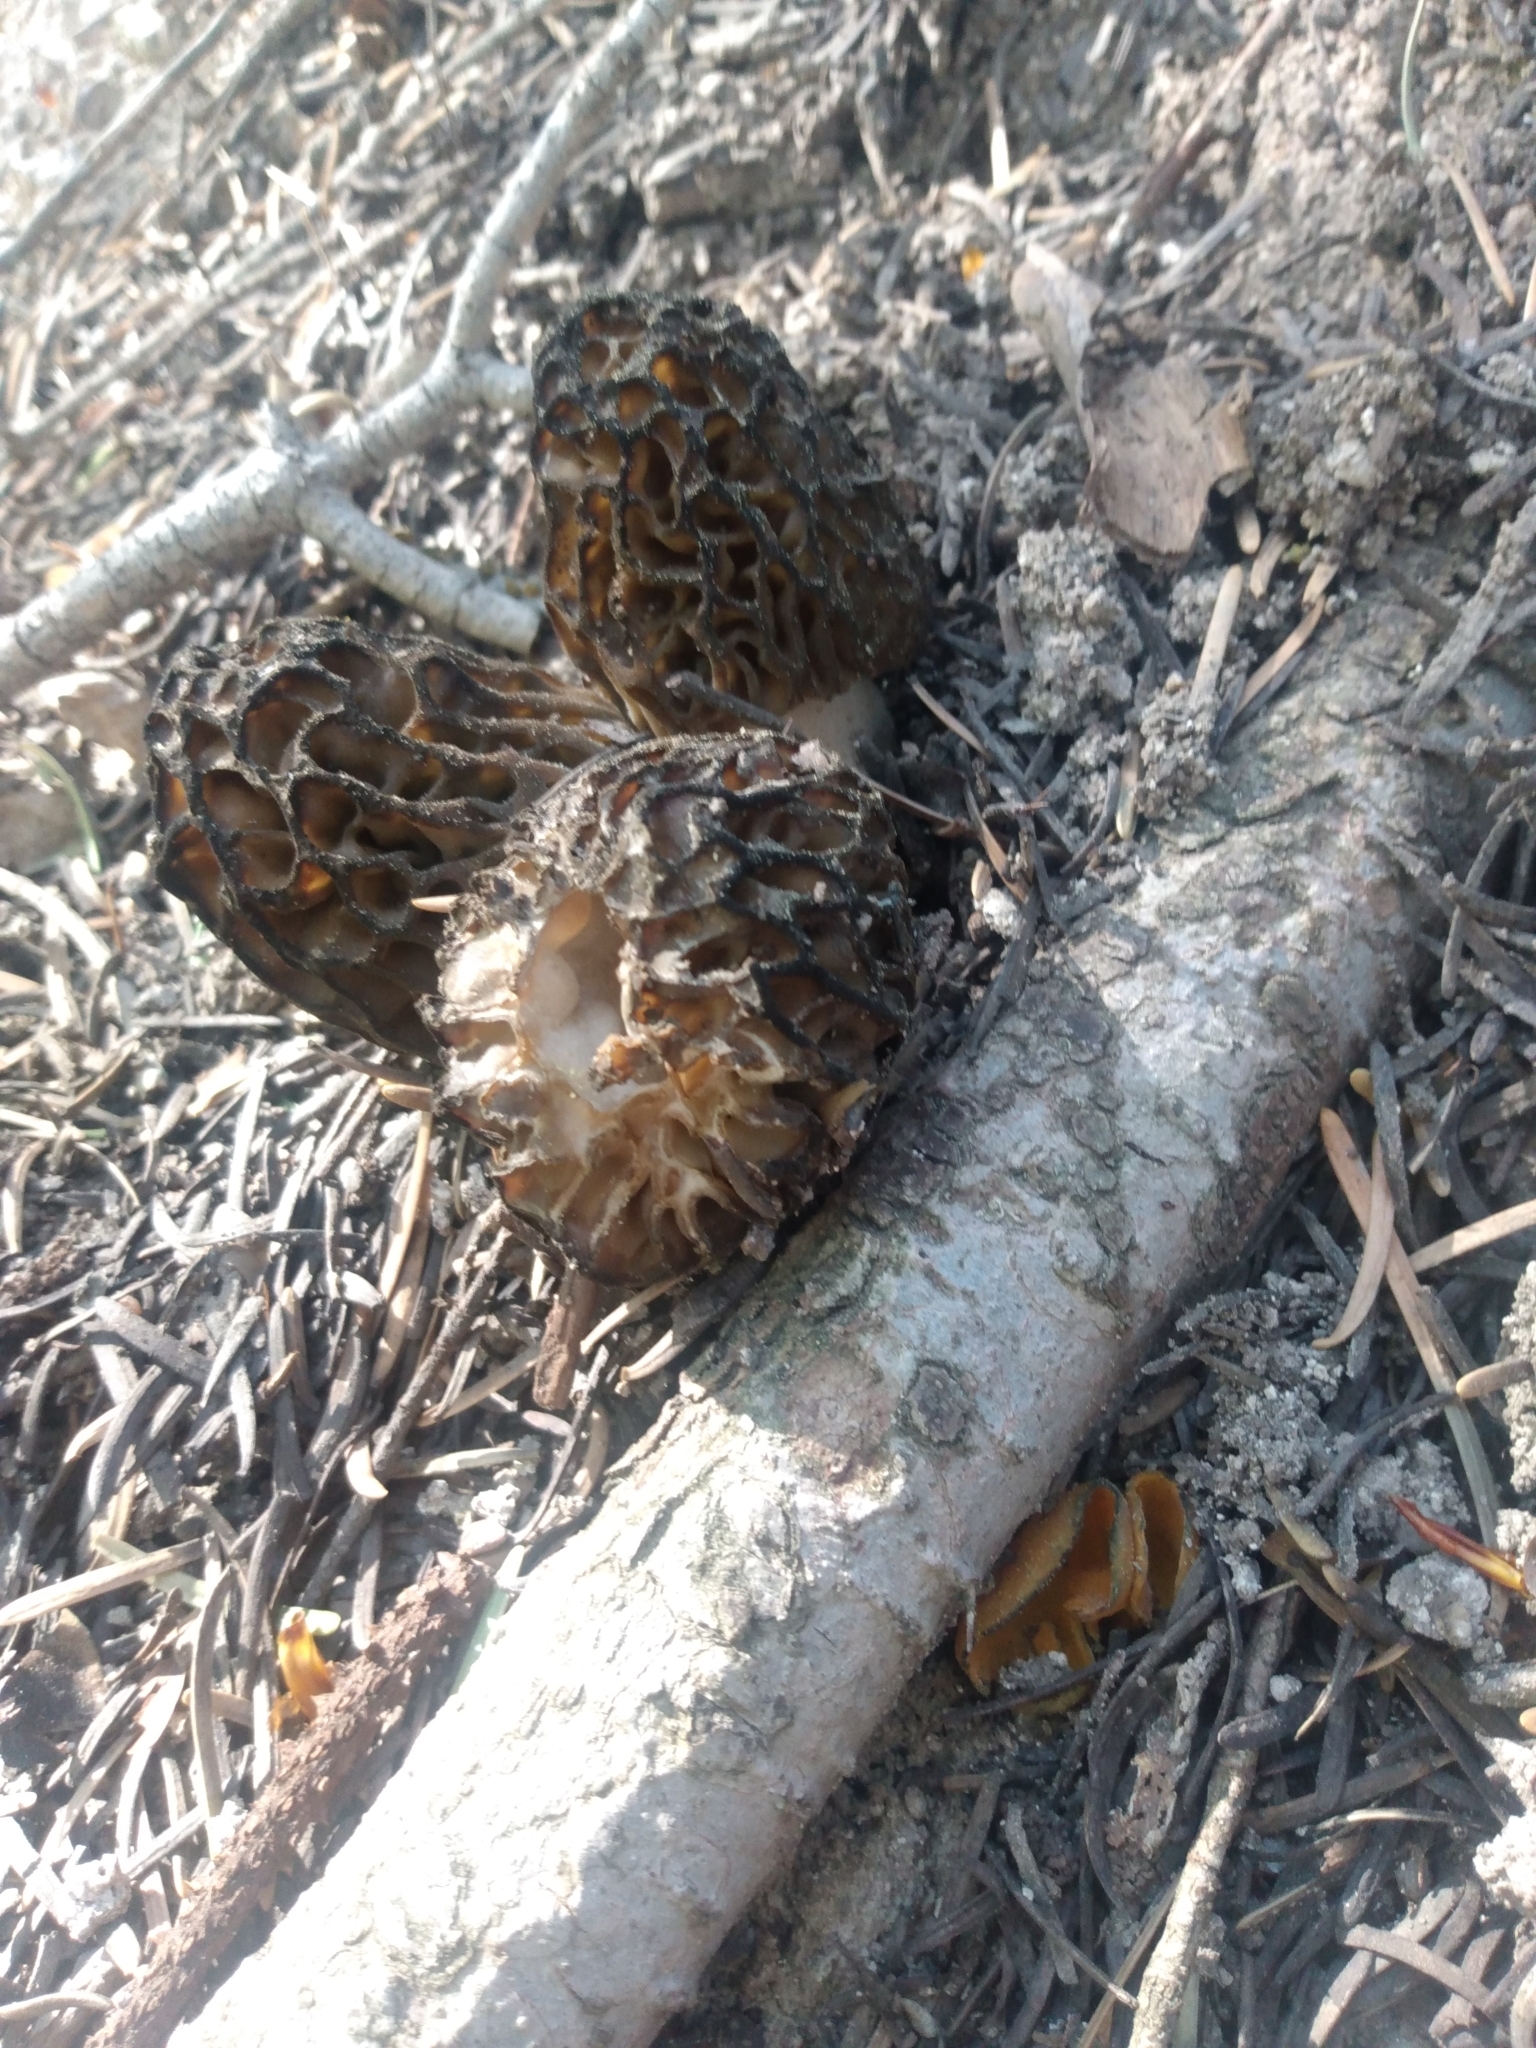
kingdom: Fungi
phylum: Ascomycota
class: Pezizomycetes
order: Pezizales
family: Morchellaceae
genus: Morchella
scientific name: Morchella snyderi
